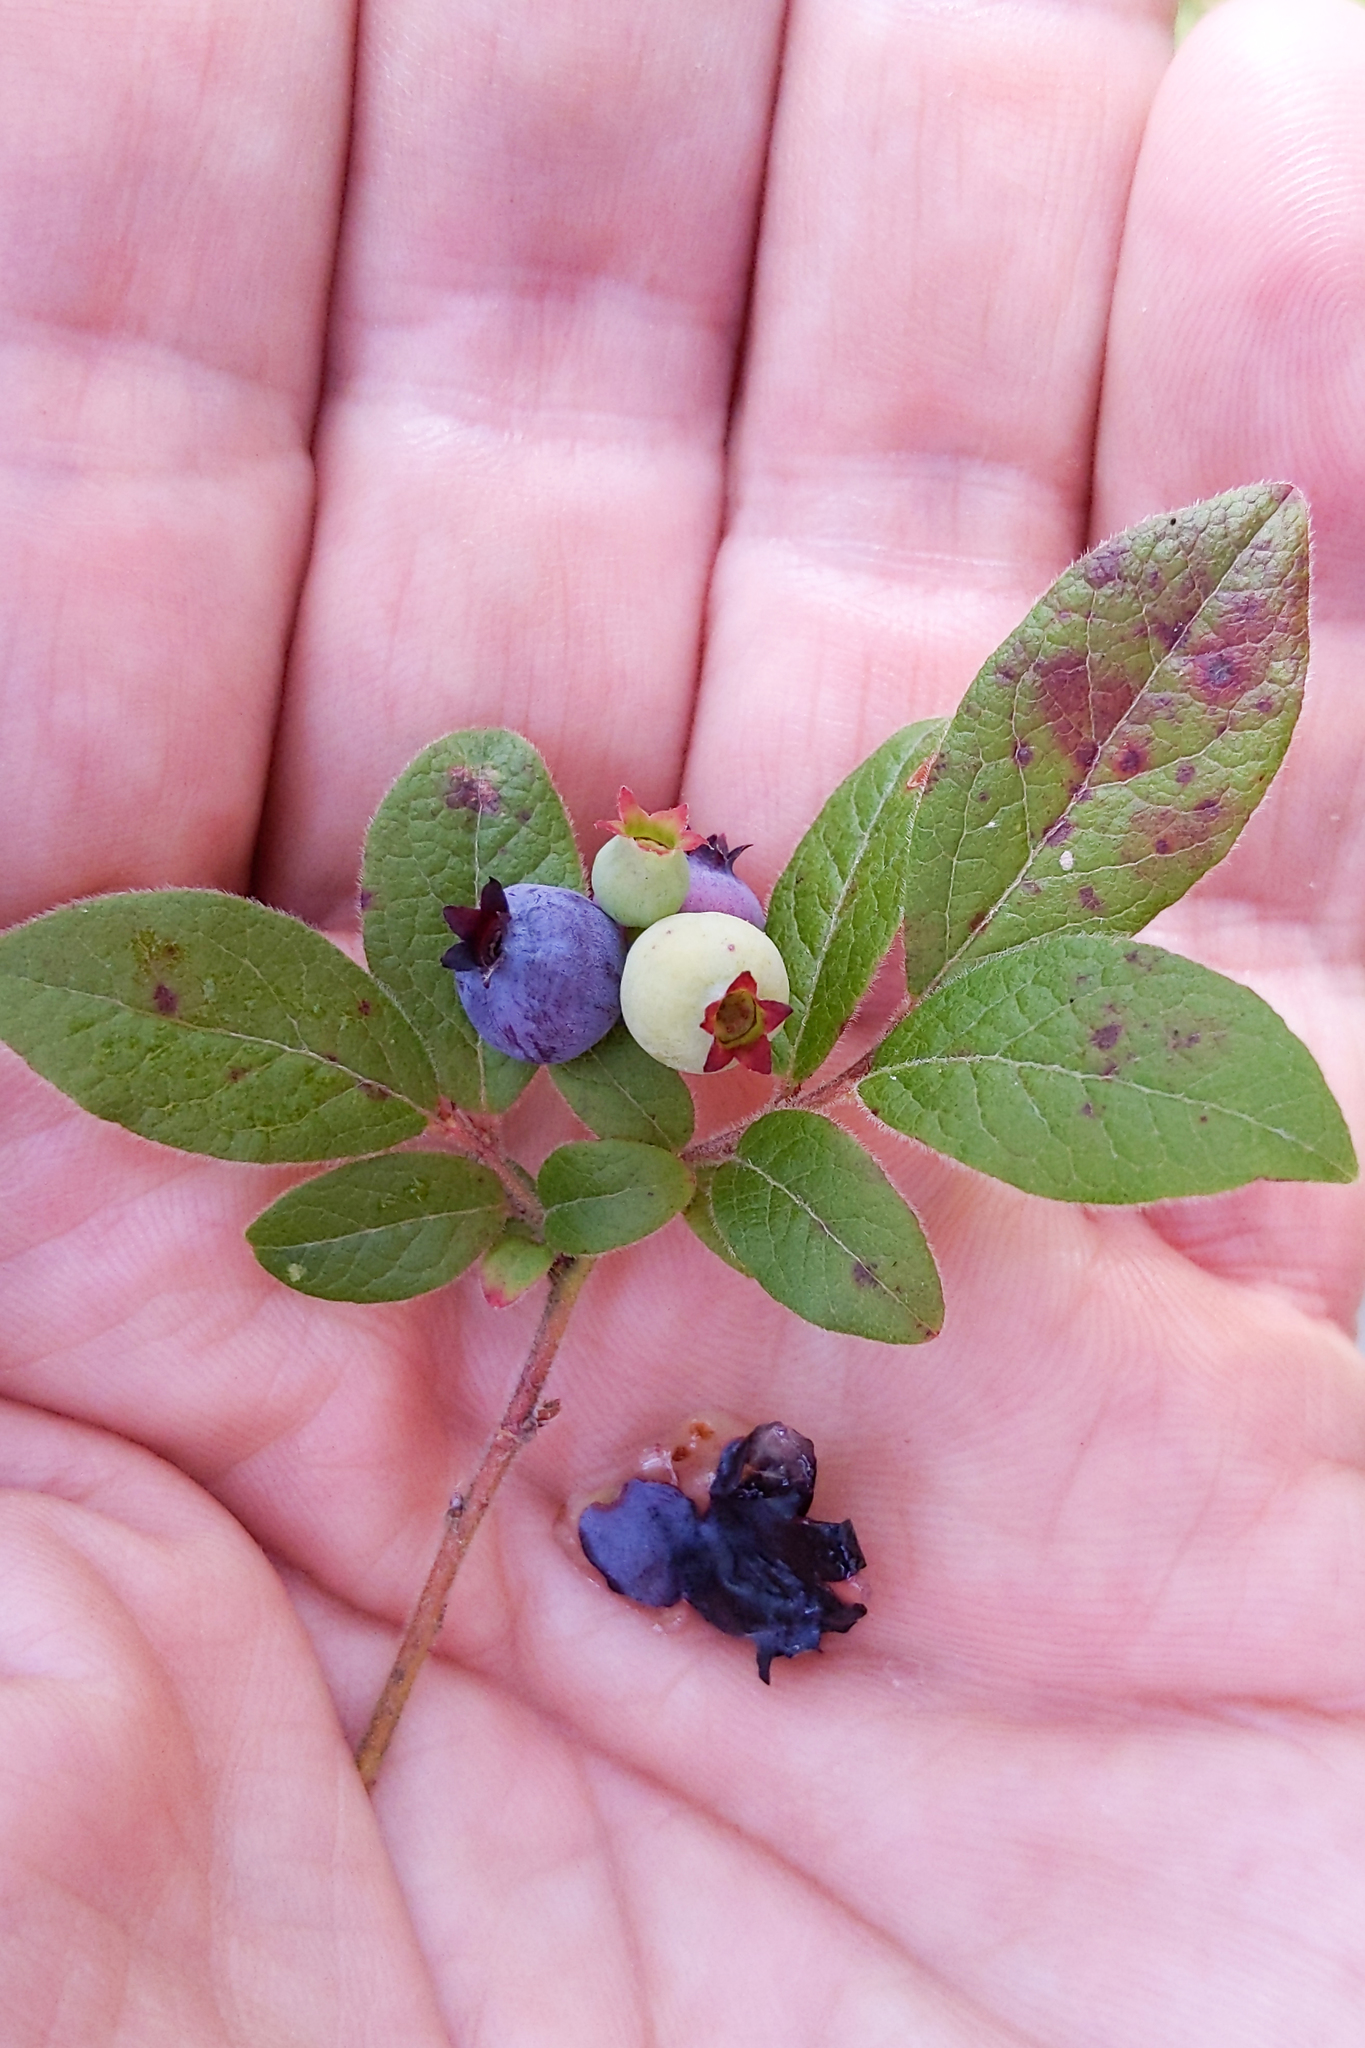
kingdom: Plantae
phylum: Tracheophyta
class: Magnoliopsida
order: Ericales
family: Ericaceae
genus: Vaccinium
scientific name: Vaccinium myrtilloides
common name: Canada blueberry
